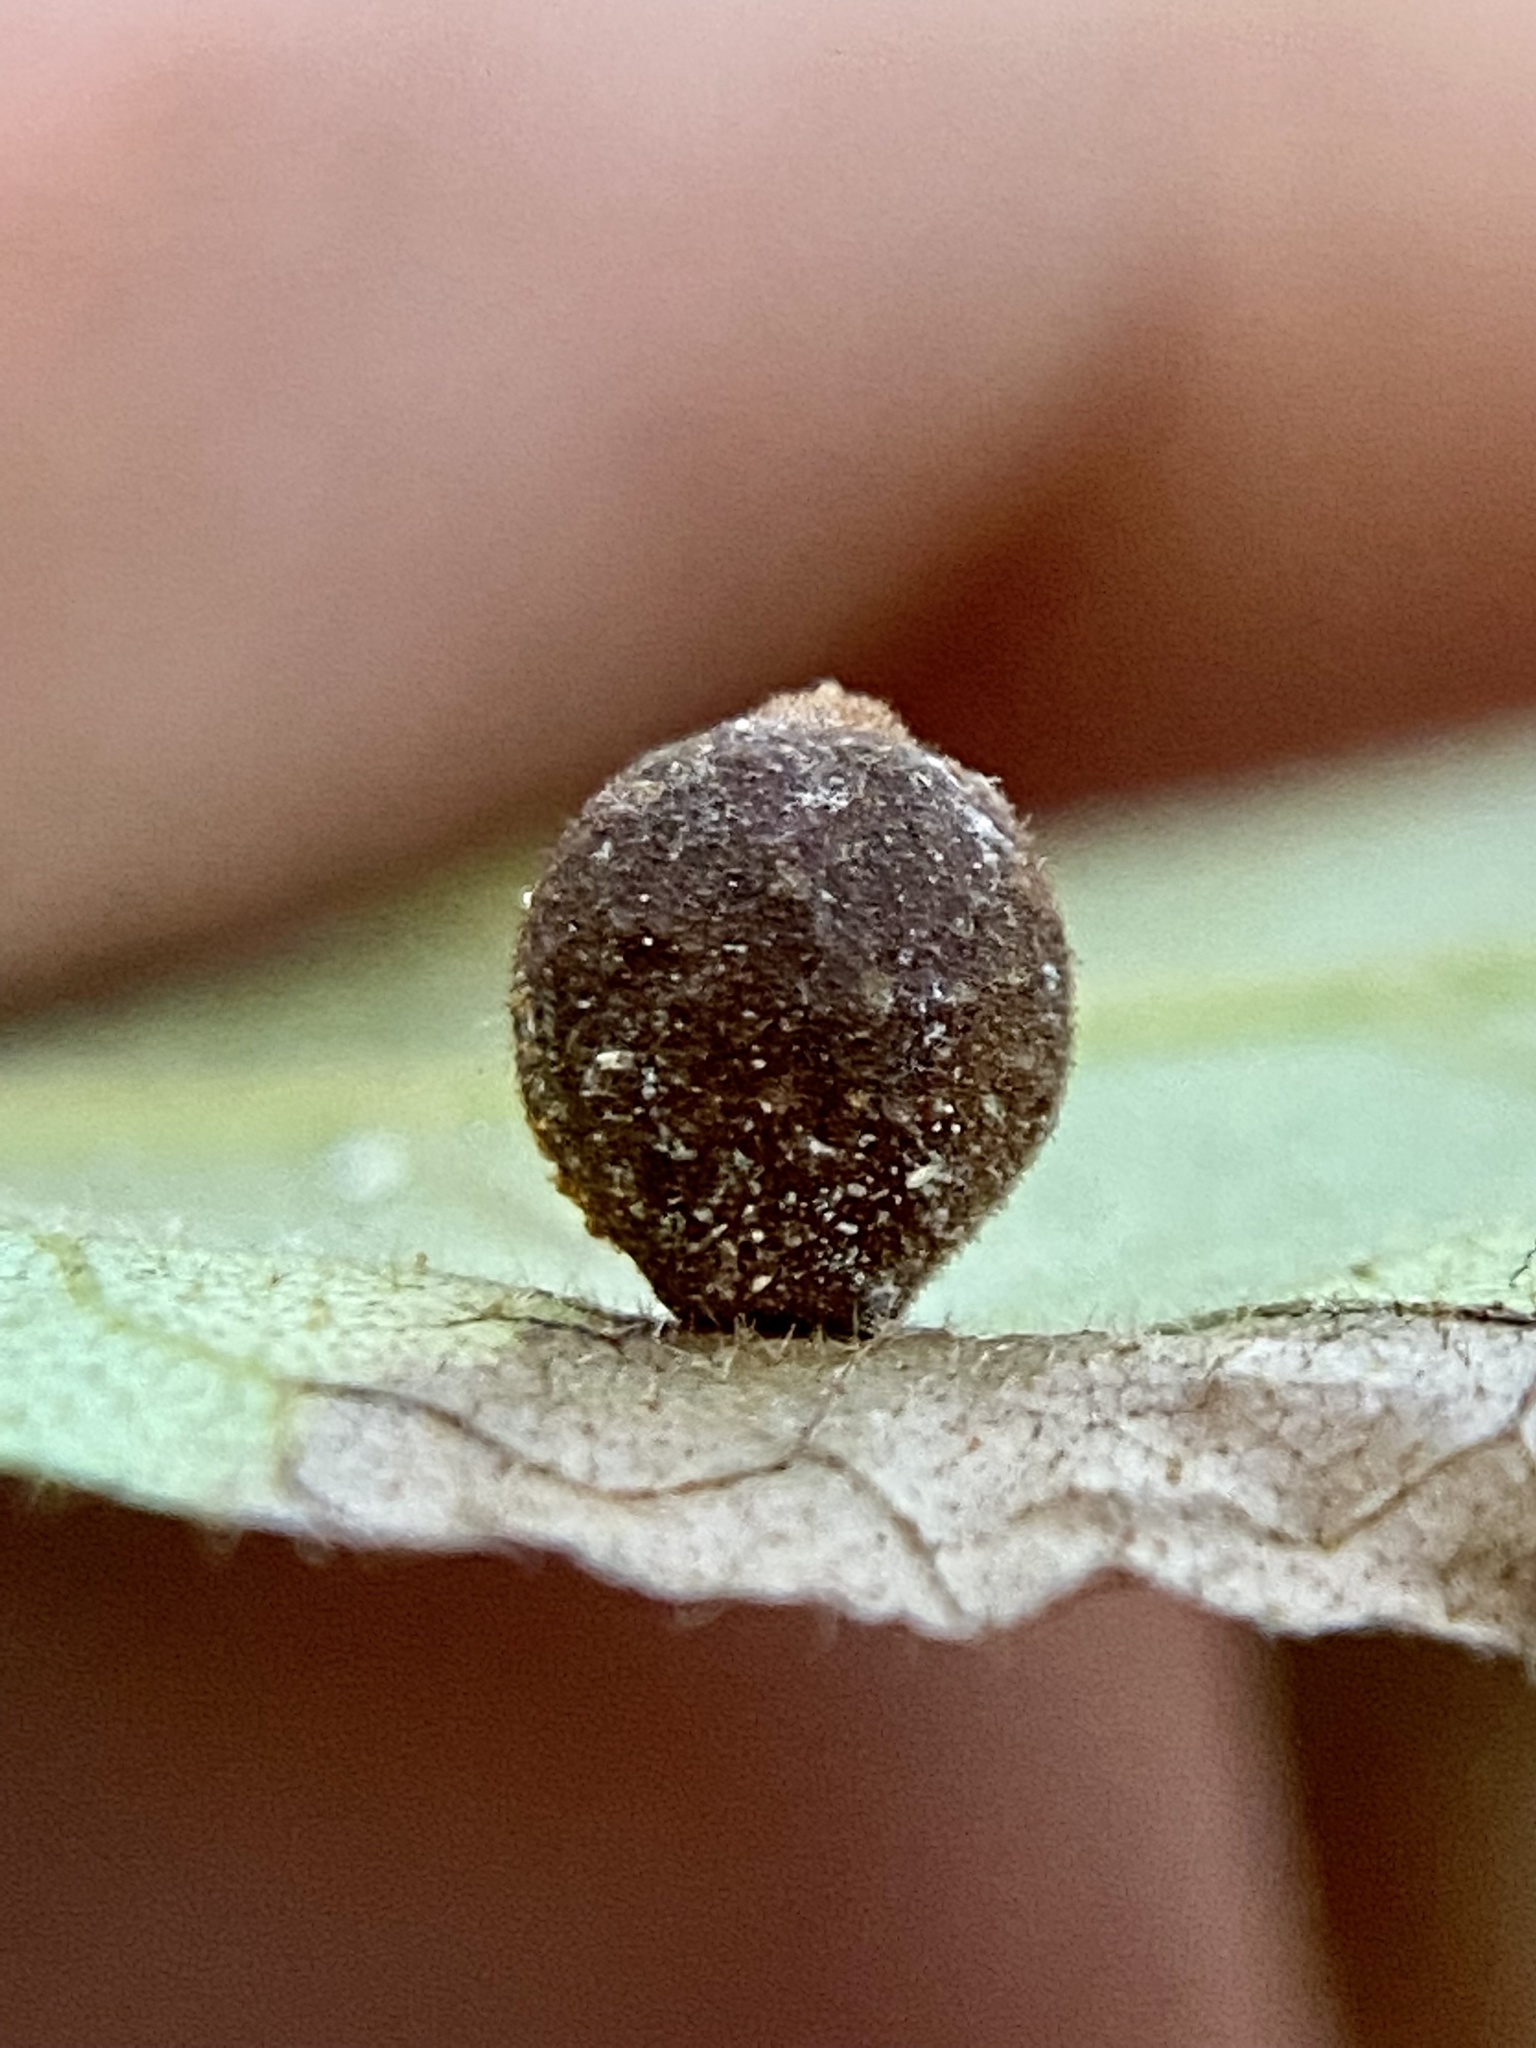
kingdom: Animalia
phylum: Arthropoda
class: Insecta
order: Diptera
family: Cecidomyiidae
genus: Caryomyia
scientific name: Caryomyia tuberidolium
